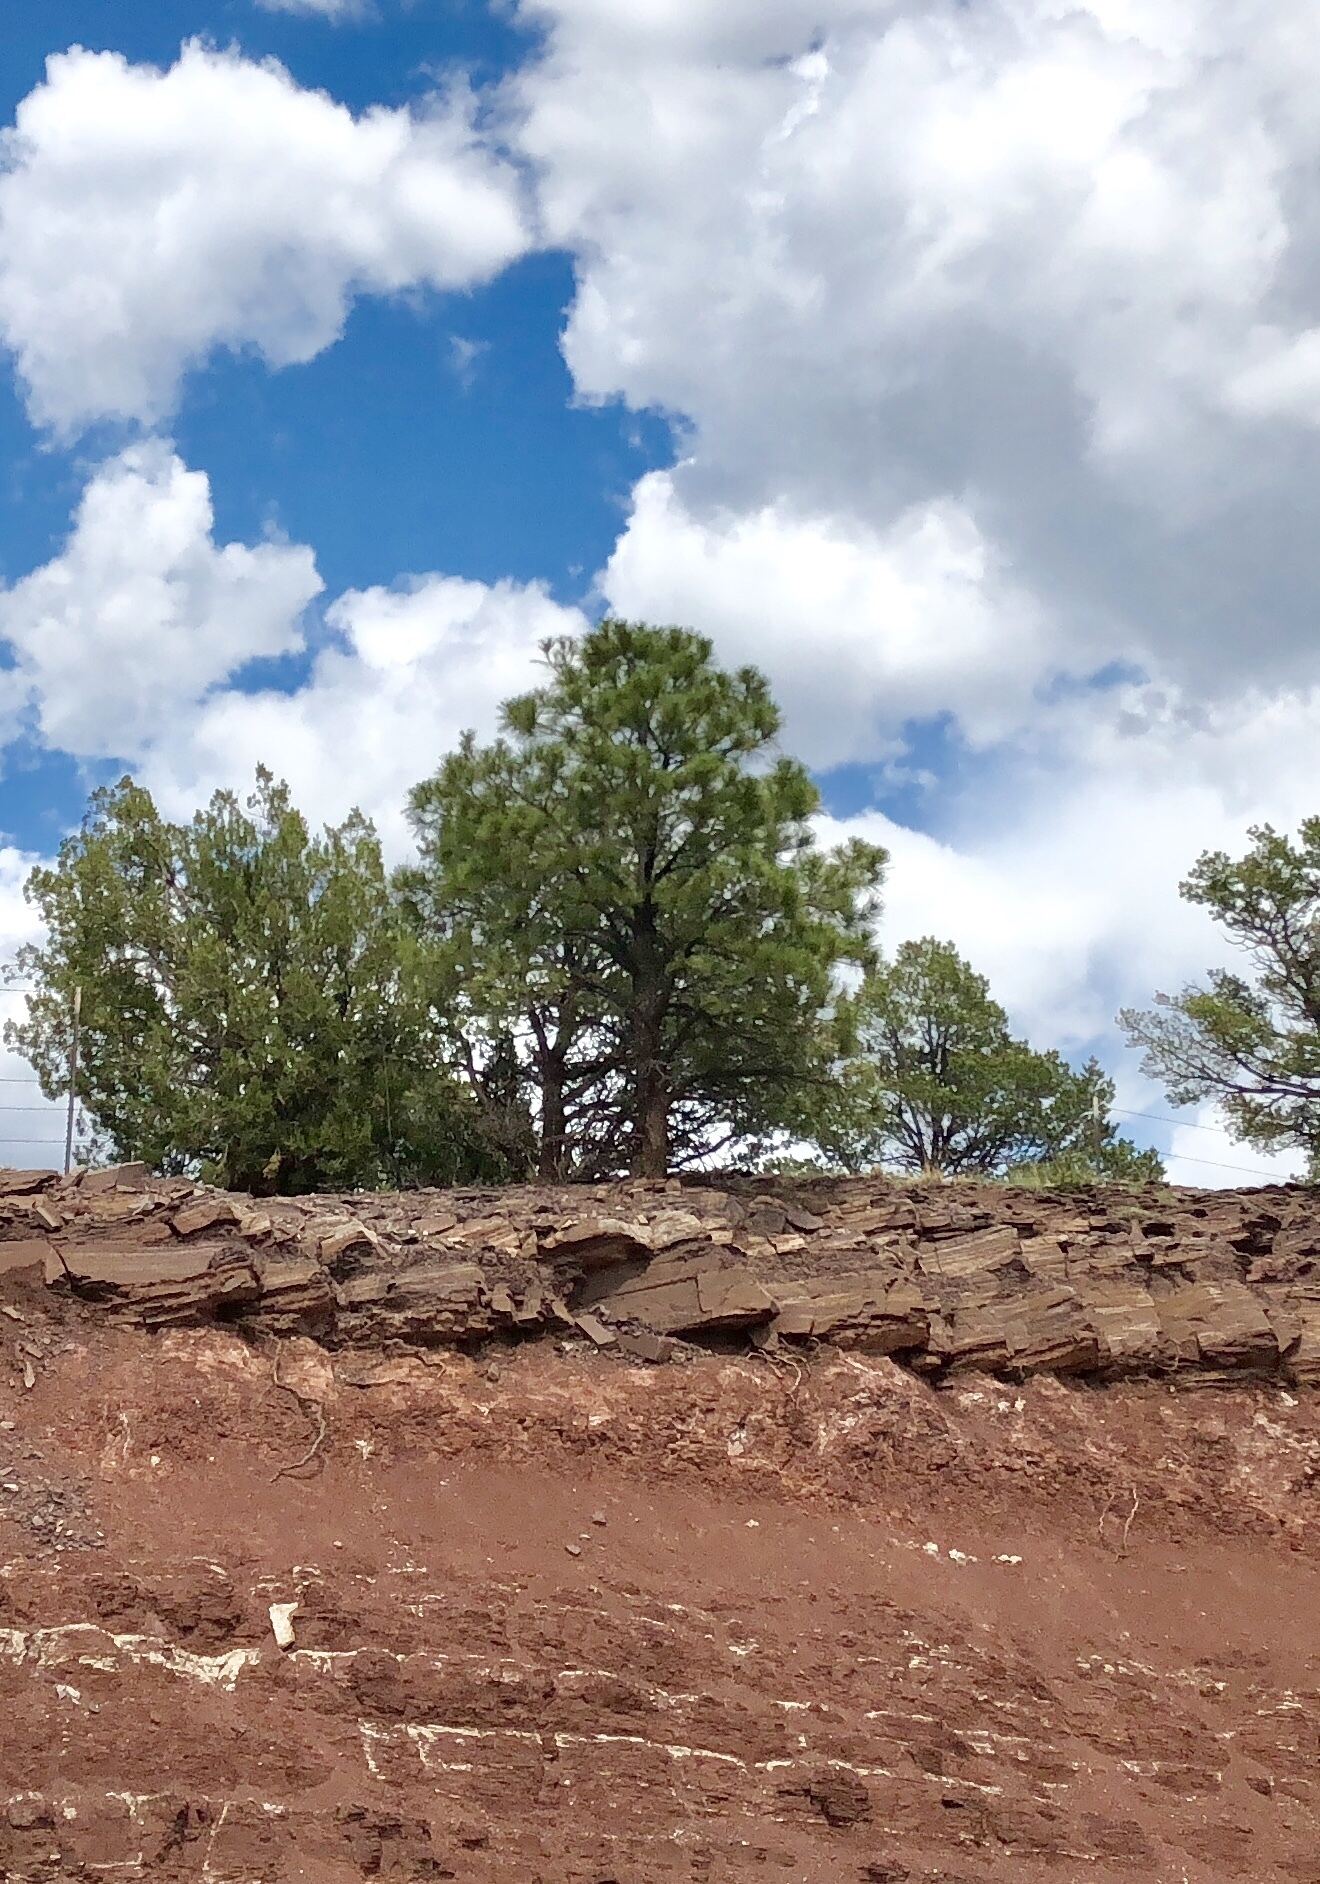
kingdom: Plantae
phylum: Tracheophyta
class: Pinopsida
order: Pinales
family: Pinaceae
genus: Pinus
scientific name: Pinus ponderosa
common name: Western yellow-pine
